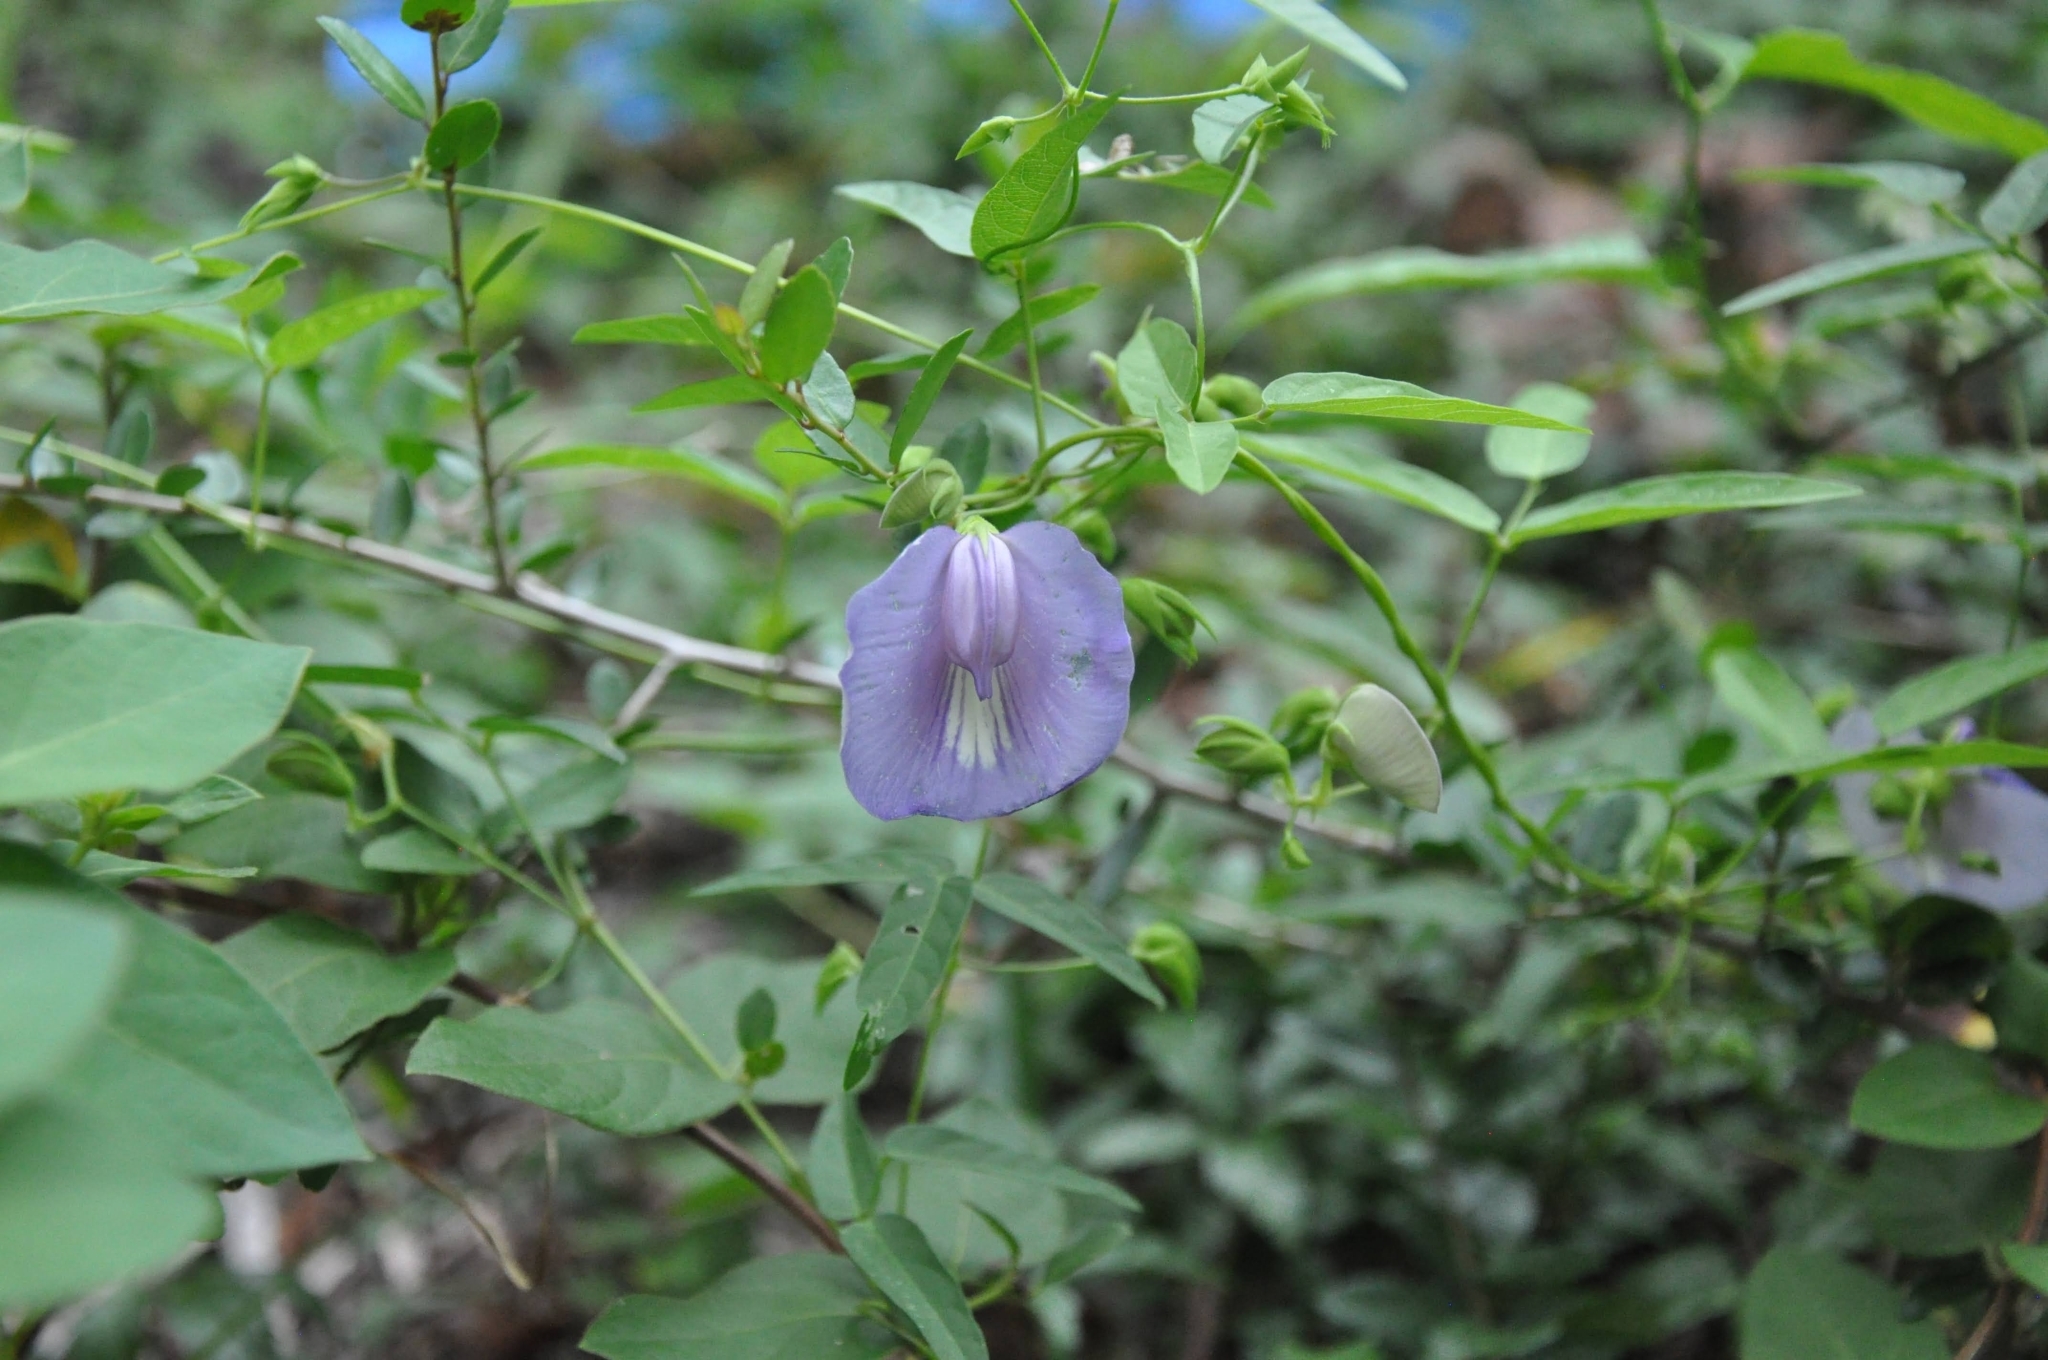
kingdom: Plantae
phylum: Tracheophyta
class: Magnoliopsida
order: Fabales
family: Fabaceae
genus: Centrosema
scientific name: Centrosema virginianum
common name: Butterfly-pea
